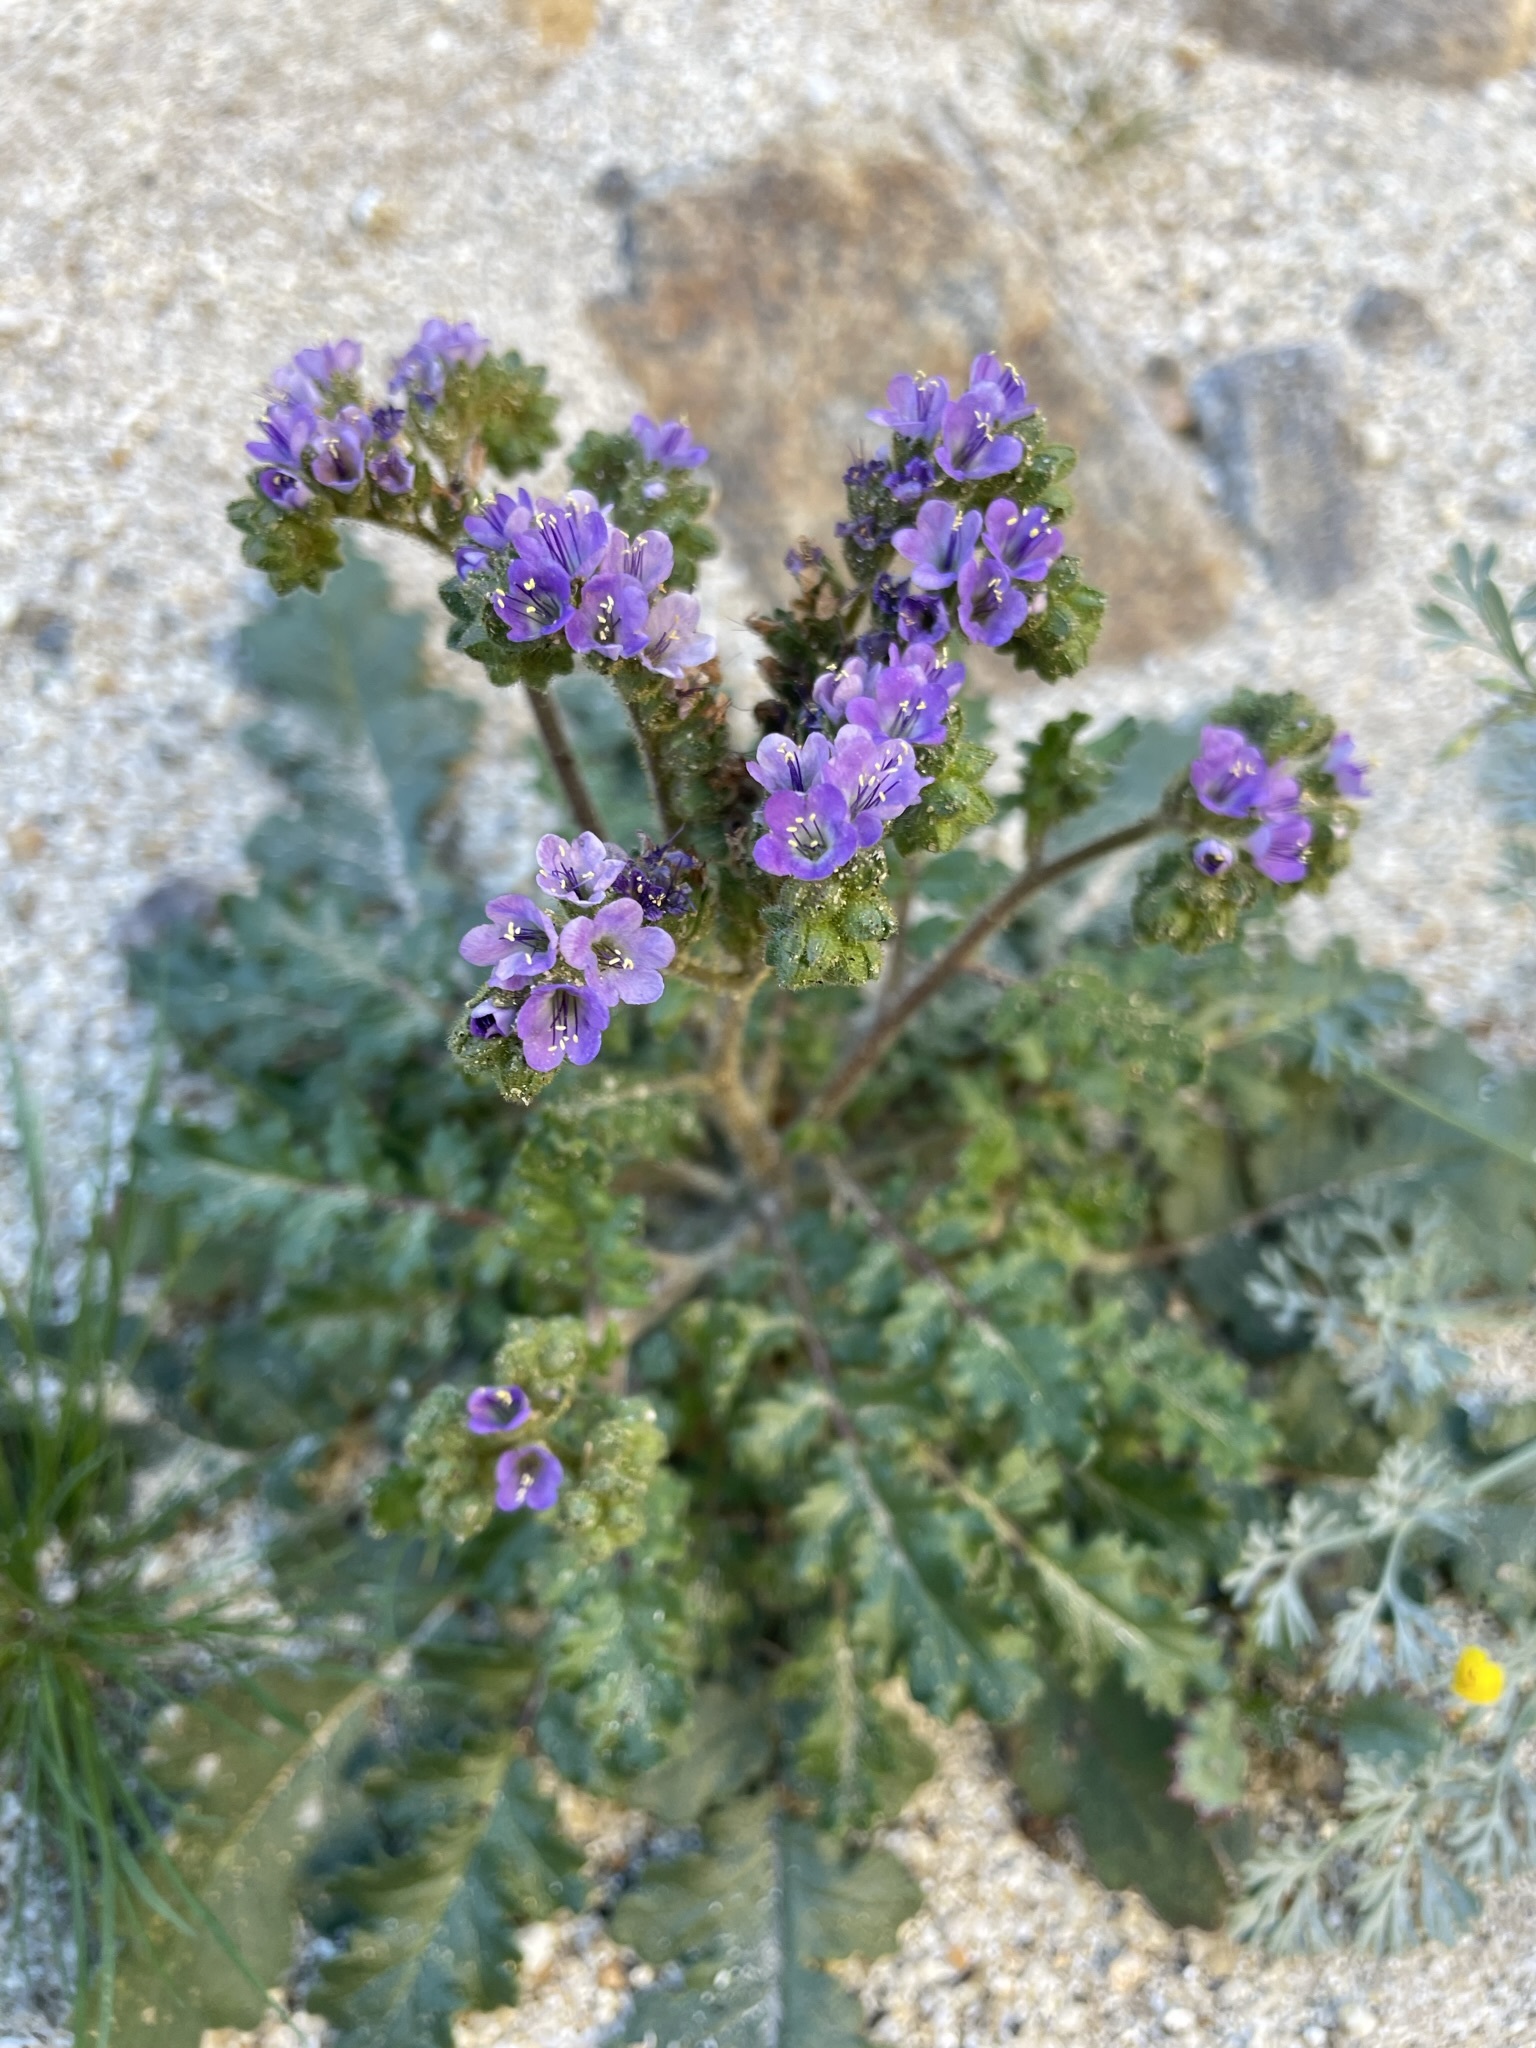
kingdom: Plantae
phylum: Tracheophyta
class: Magnoliopsida
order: Boraginales
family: Hydrophyllaceae
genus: Phacelia
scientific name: Phacelia crenulata
